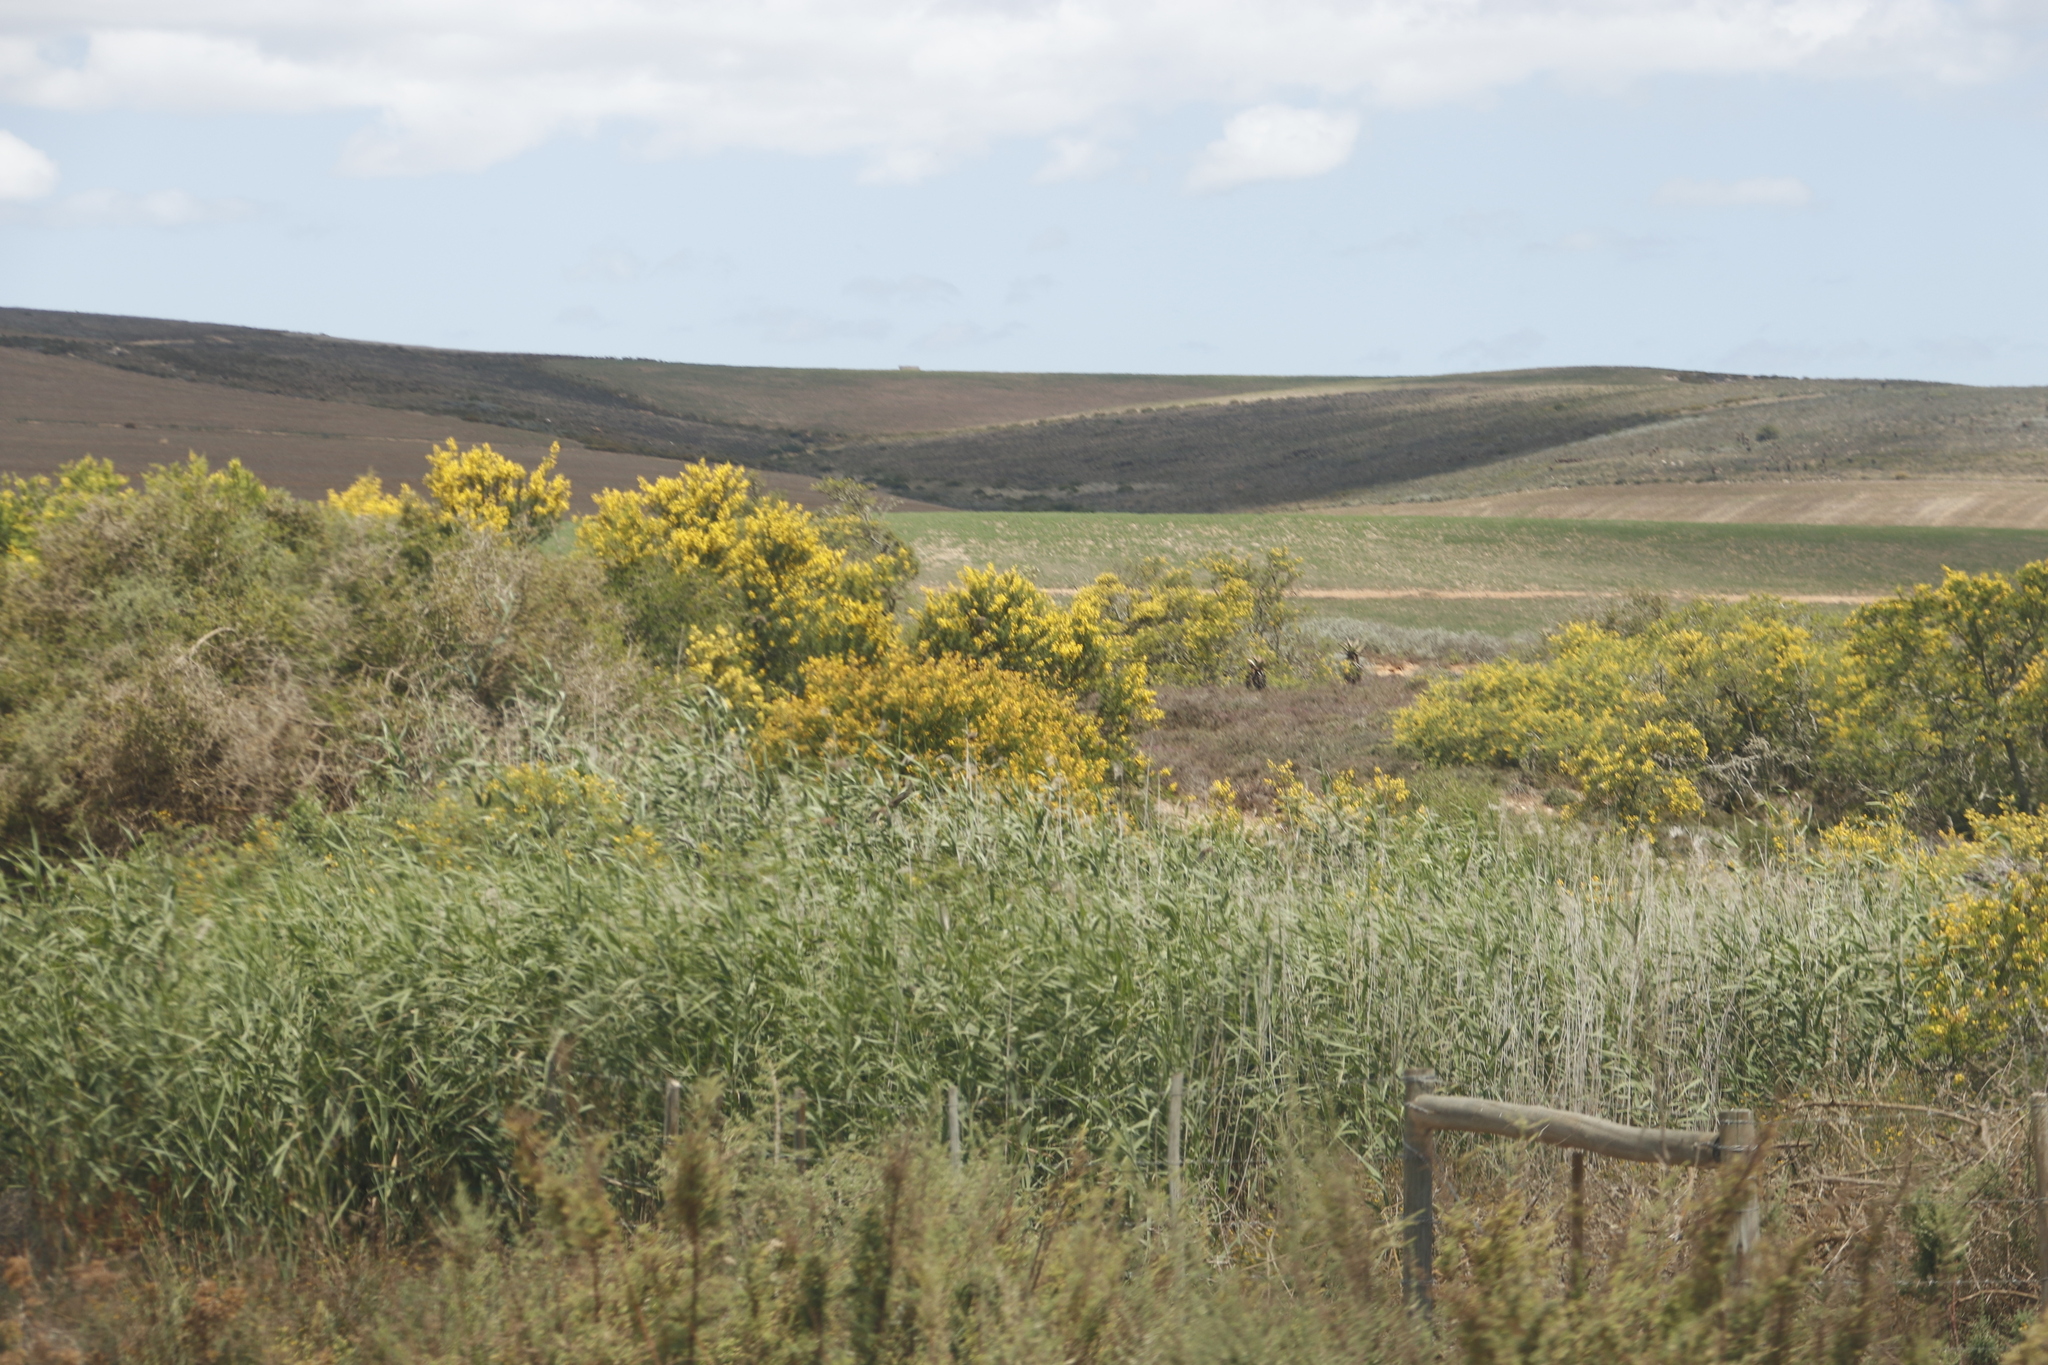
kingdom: Plantae
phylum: Tracheophyta
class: Magnoliopsida
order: Fabales
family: Fabaceae
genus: Vachellia
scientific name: Vachellia karroo
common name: Sweet thorn
